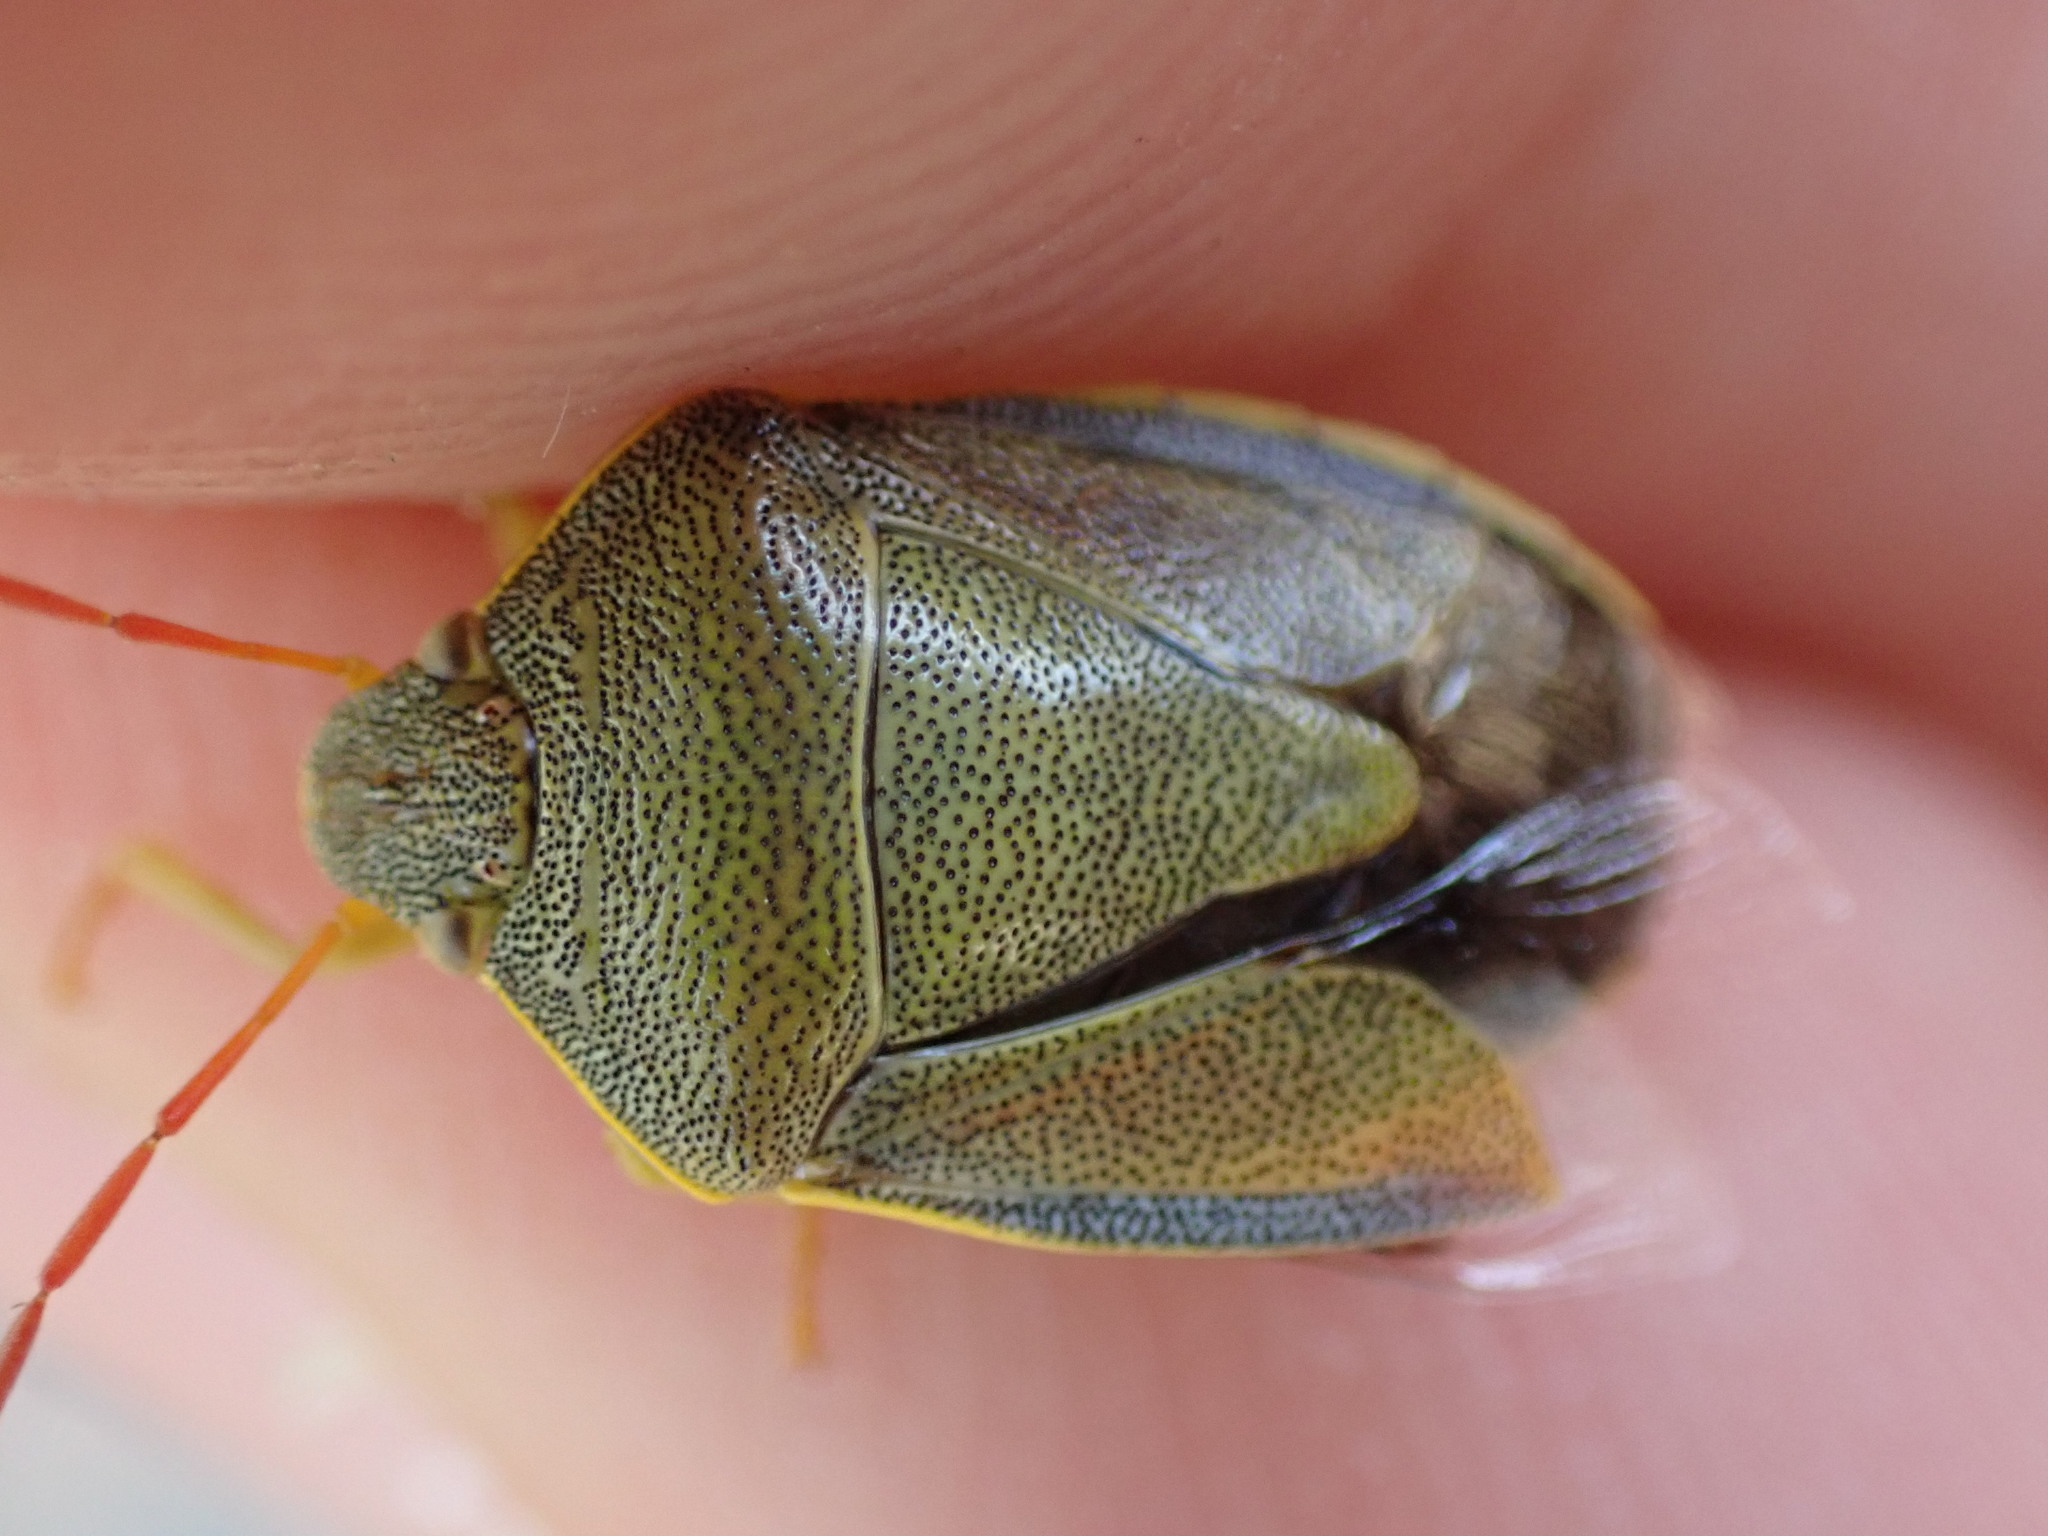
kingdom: Animalia
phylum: Arthropoda
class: Insecta
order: Hemiptera
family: Pentatomidae
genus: Piezodorus
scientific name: Piezodorus lituratus
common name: Stink bug
